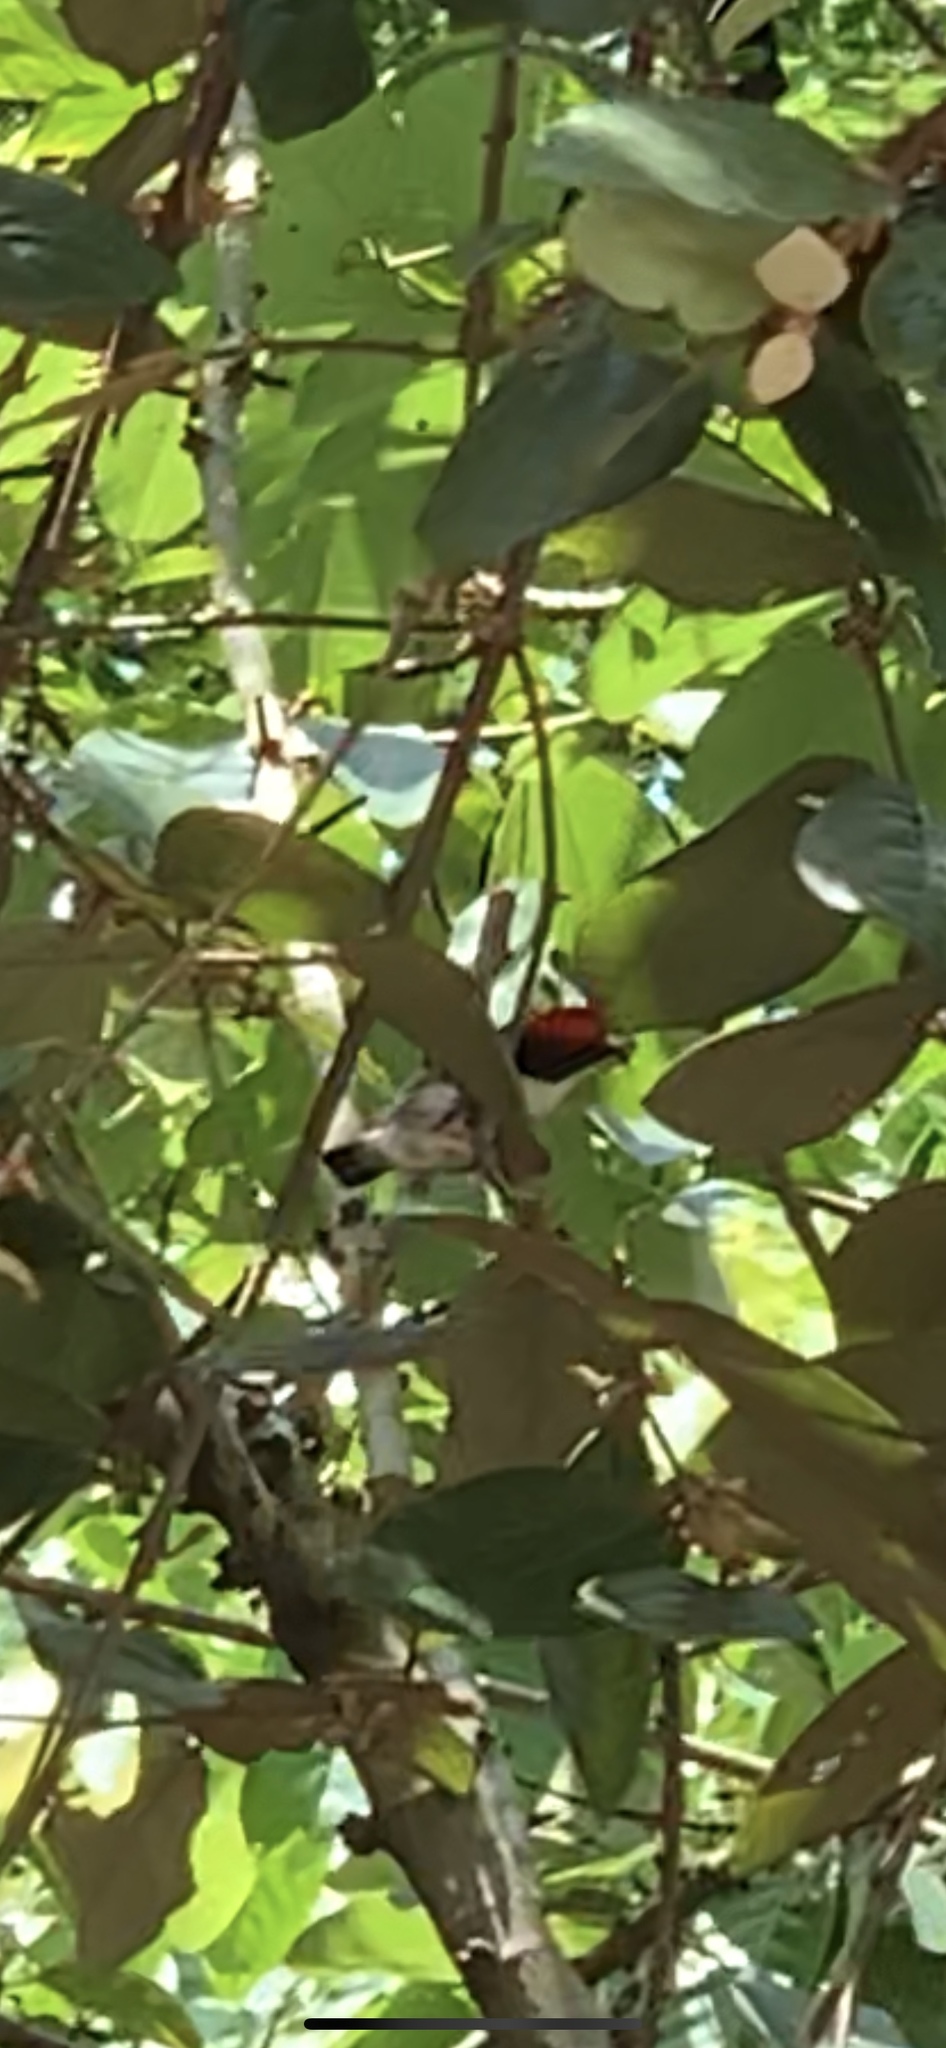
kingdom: Animalia
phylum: Chordata
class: Aves
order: Passeriformes
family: Dicaeidae
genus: Dicaeum
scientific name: Dicaeum cruentatum
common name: Scarlet-backed flowerpecker
